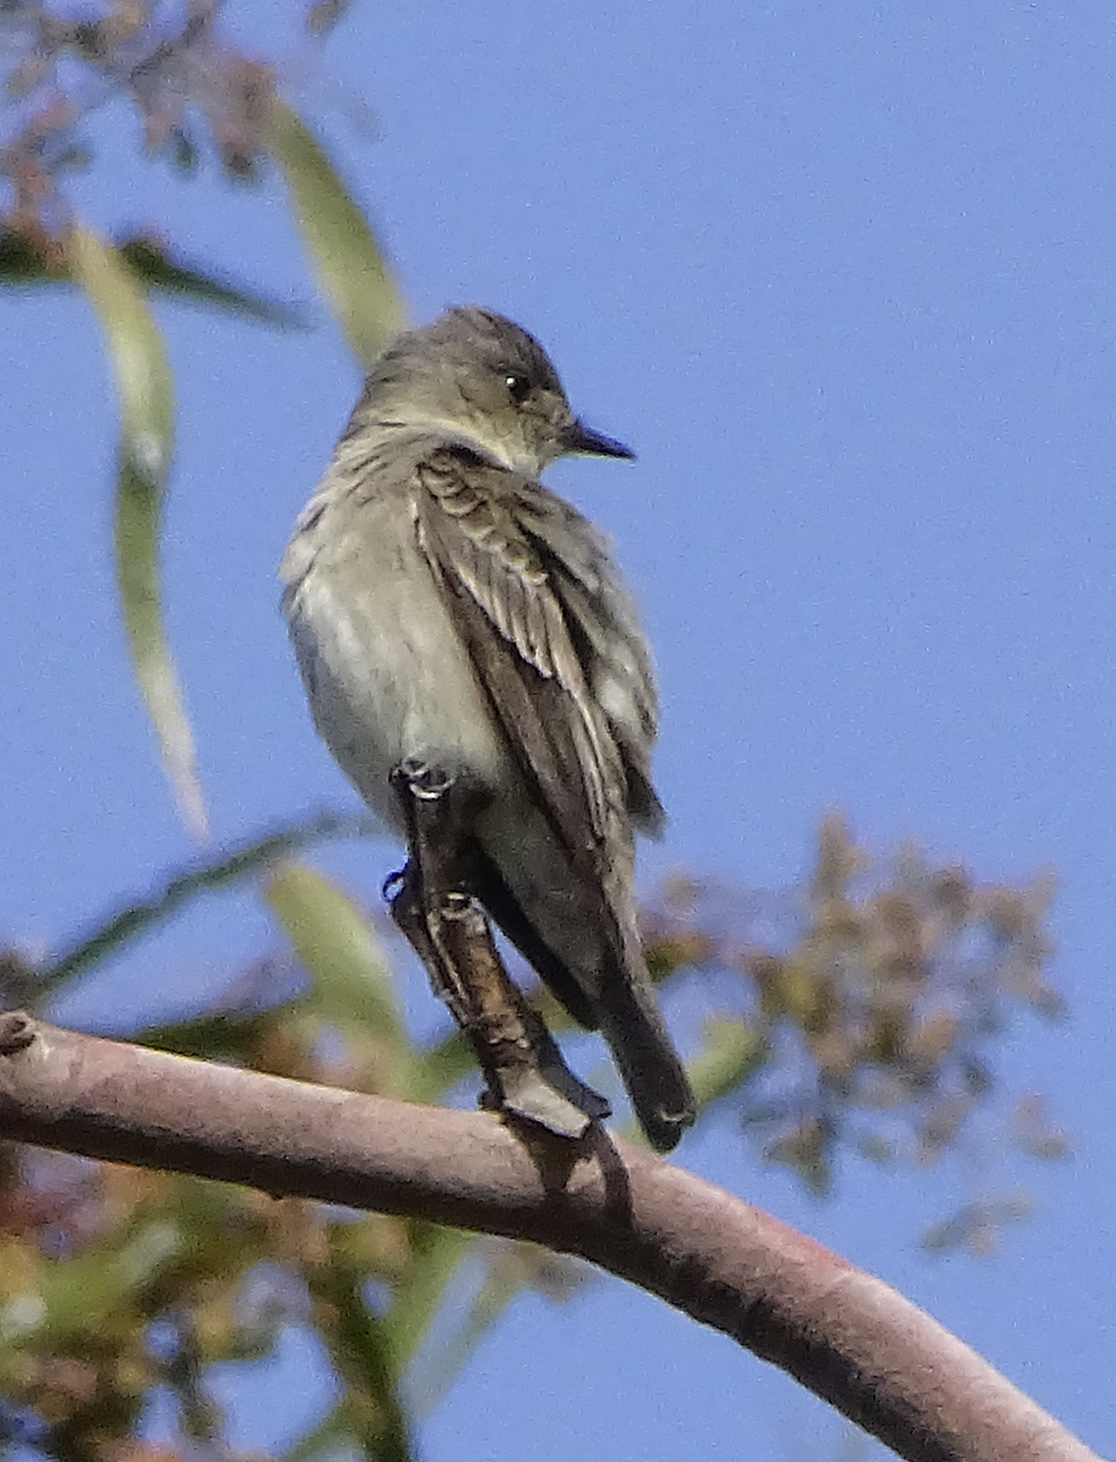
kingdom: Animalia
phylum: Chordata
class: Aves
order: Passeriformes
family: Tyrannidae
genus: Contopus
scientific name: Contopus sordidulus
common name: Western wood-pewee
